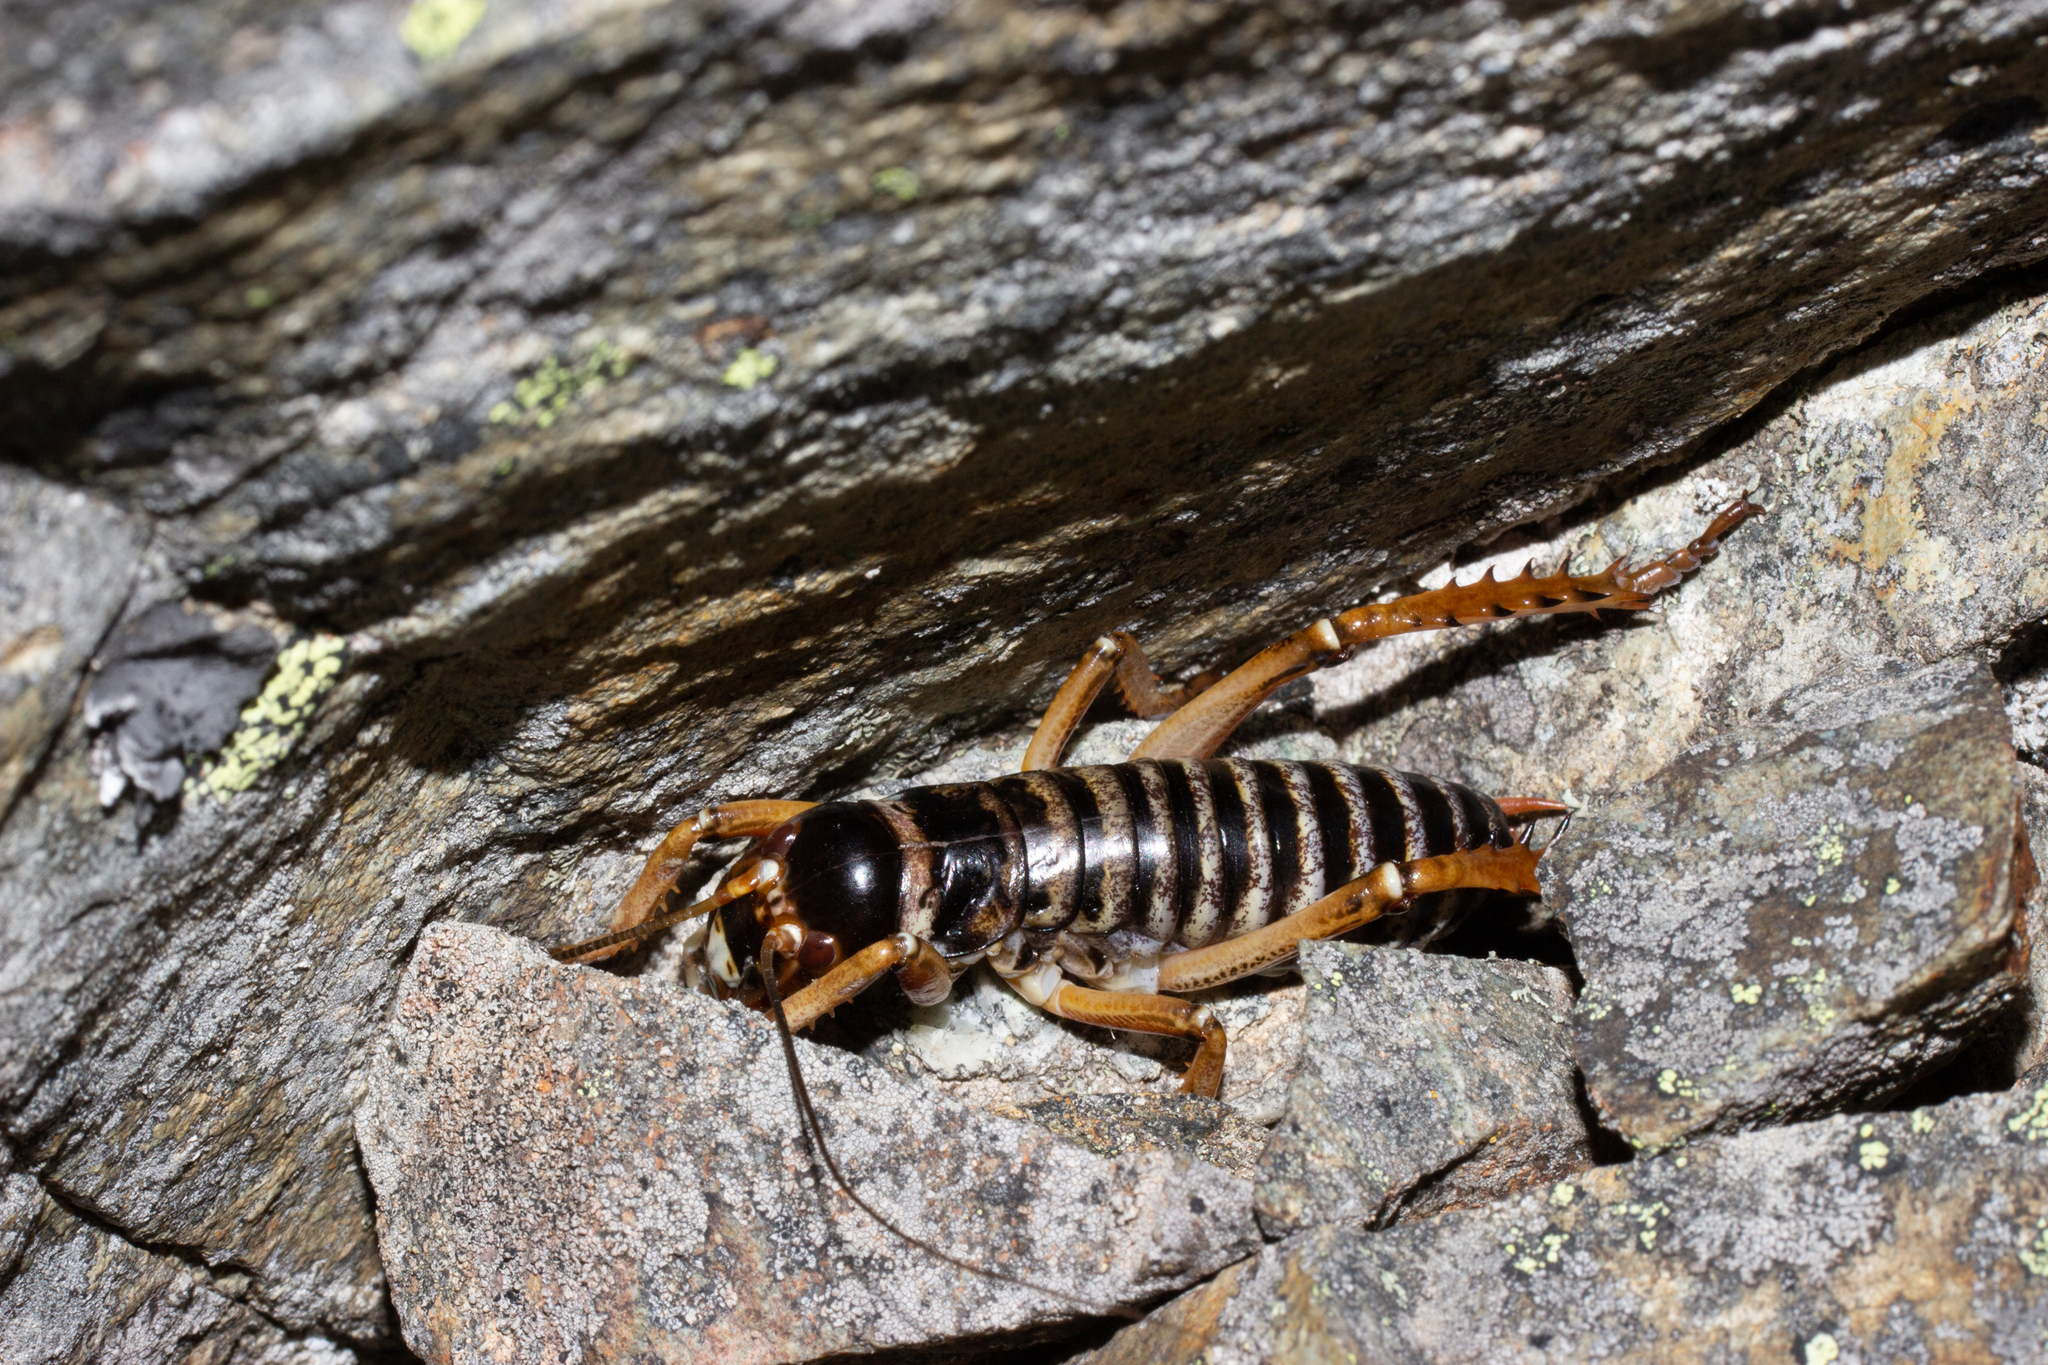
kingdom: Animalia
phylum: Arthropoda
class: Insecta
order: Orthoptera
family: Anostostomatidae
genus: Hemideina
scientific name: Hemideina maori
